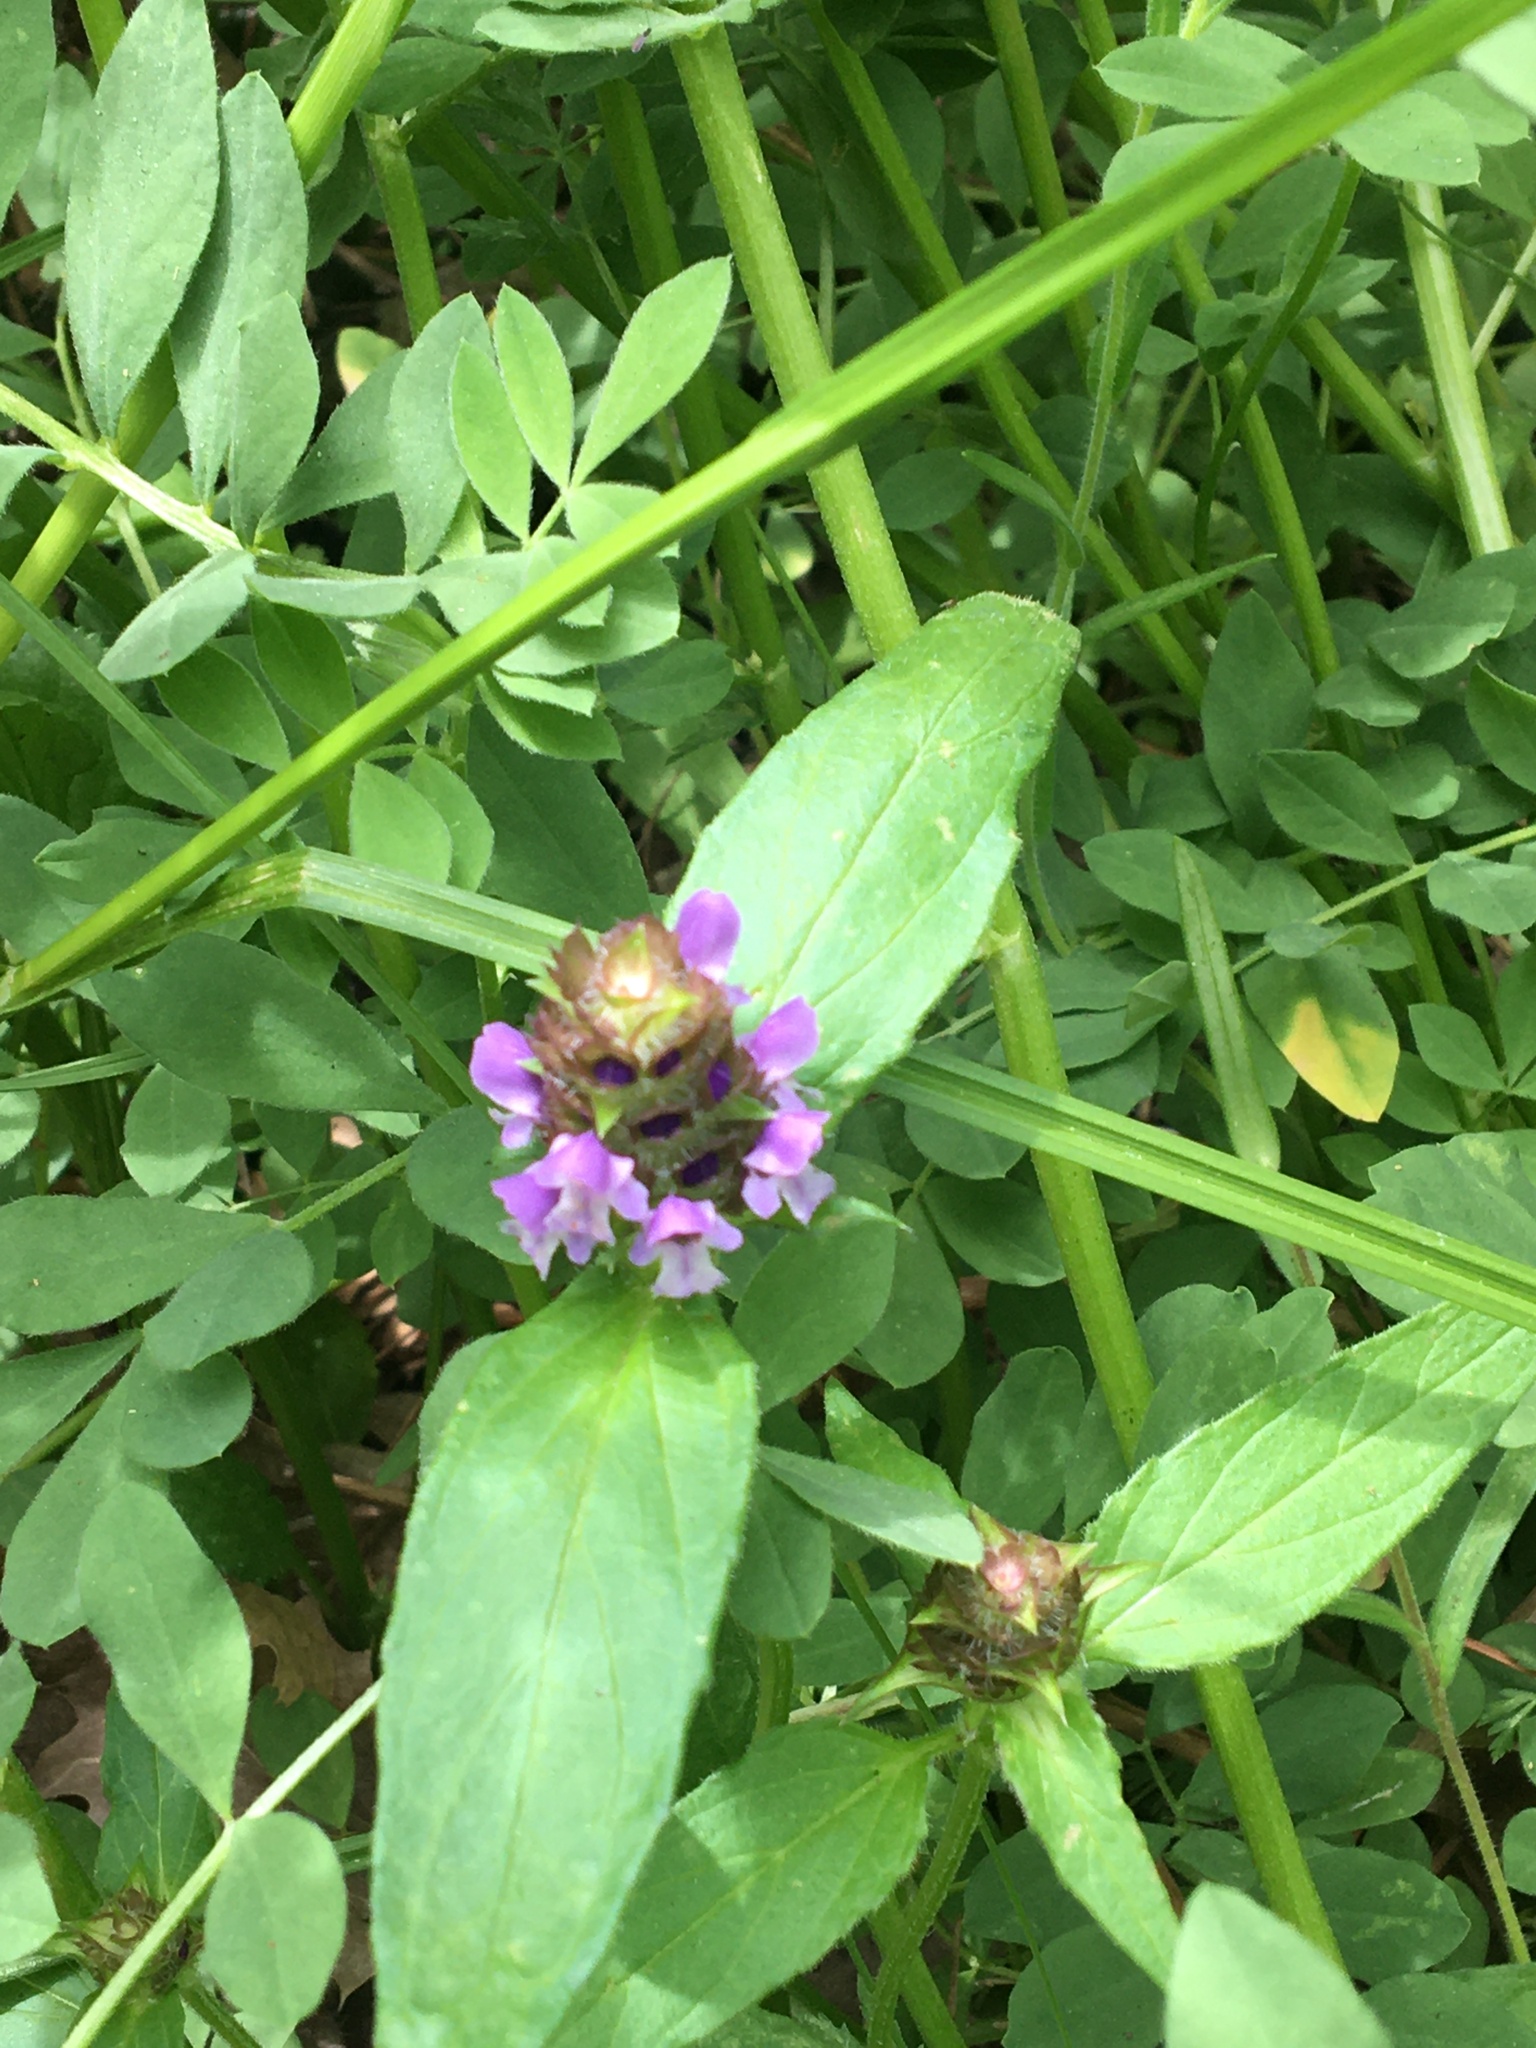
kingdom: Plantae
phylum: Tracheophyta
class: Magnoliopsida
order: Lamiales
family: Lamiaceae
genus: Prunella
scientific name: Prunella vulgaris
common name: Heal-all
